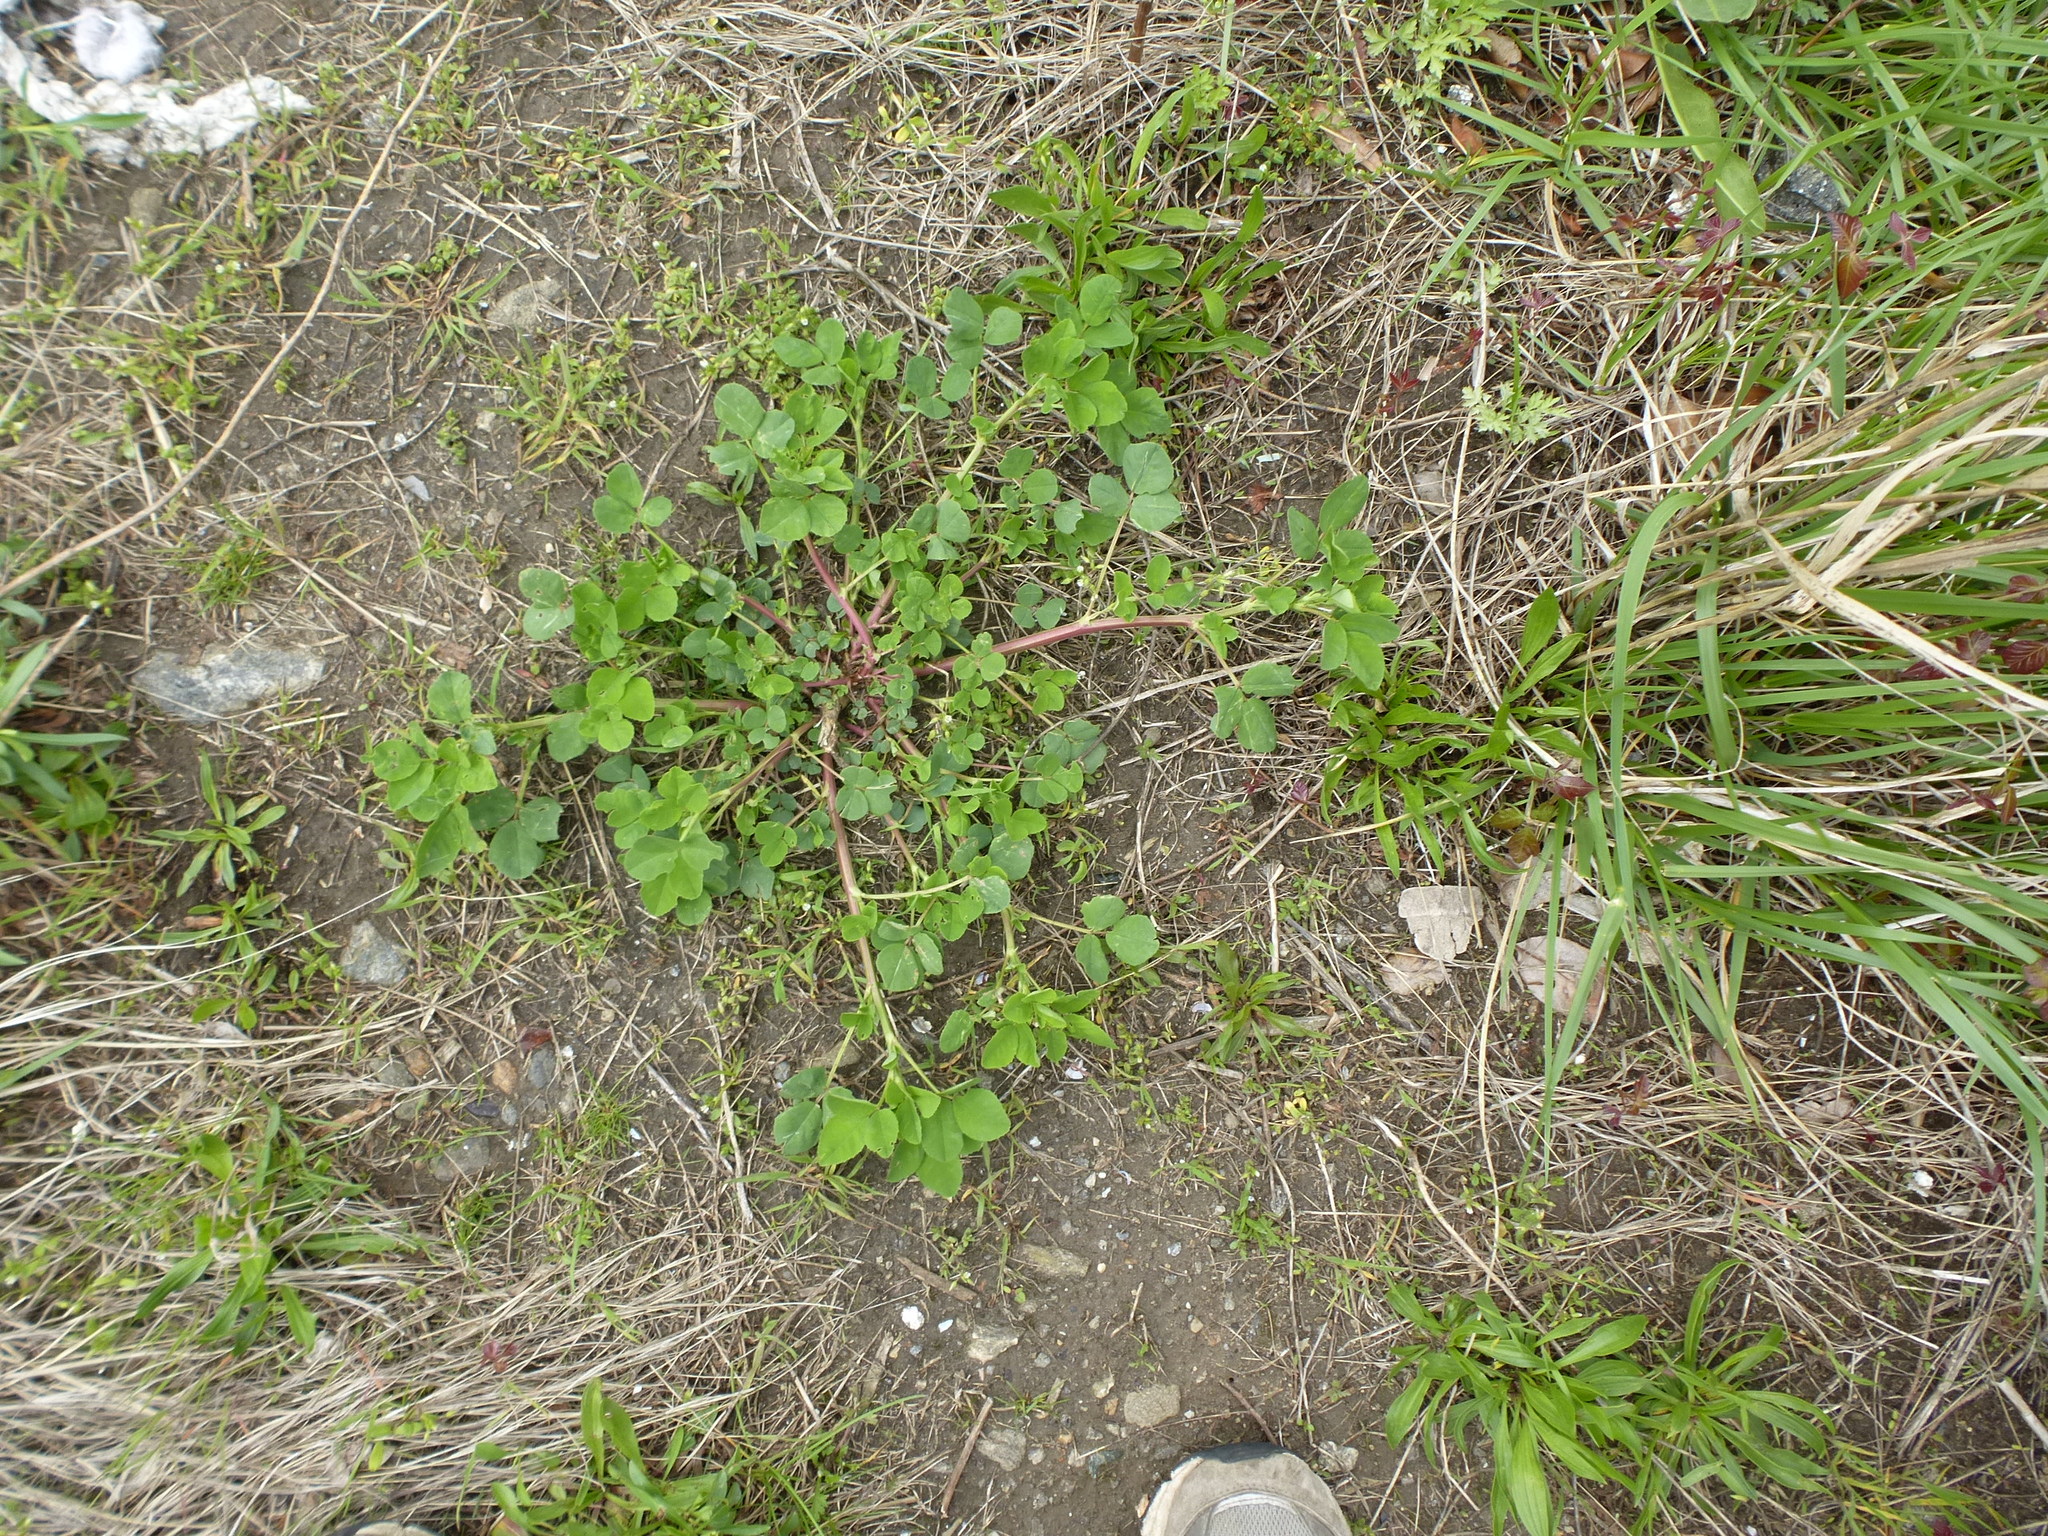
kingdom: Plantae
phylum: Tracheophyta
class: Magnoliopsida
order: Fabales
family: Fabaceae
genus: Melilotus
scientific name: Melilotus
